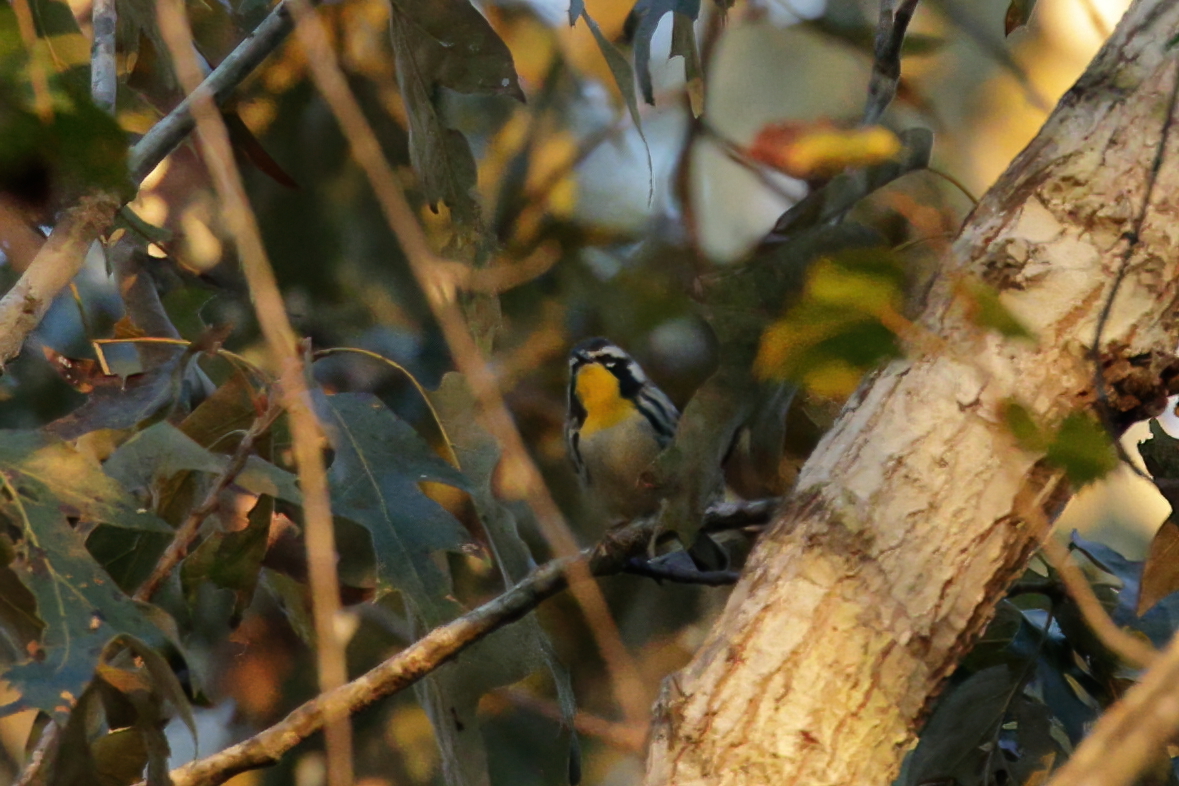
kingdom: Animalia
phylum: Chordata
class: Aves
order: Passeriformes
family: Parulidae
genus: Setophaga
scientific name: Setophaga dominica
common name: Yellow-throated warbler
